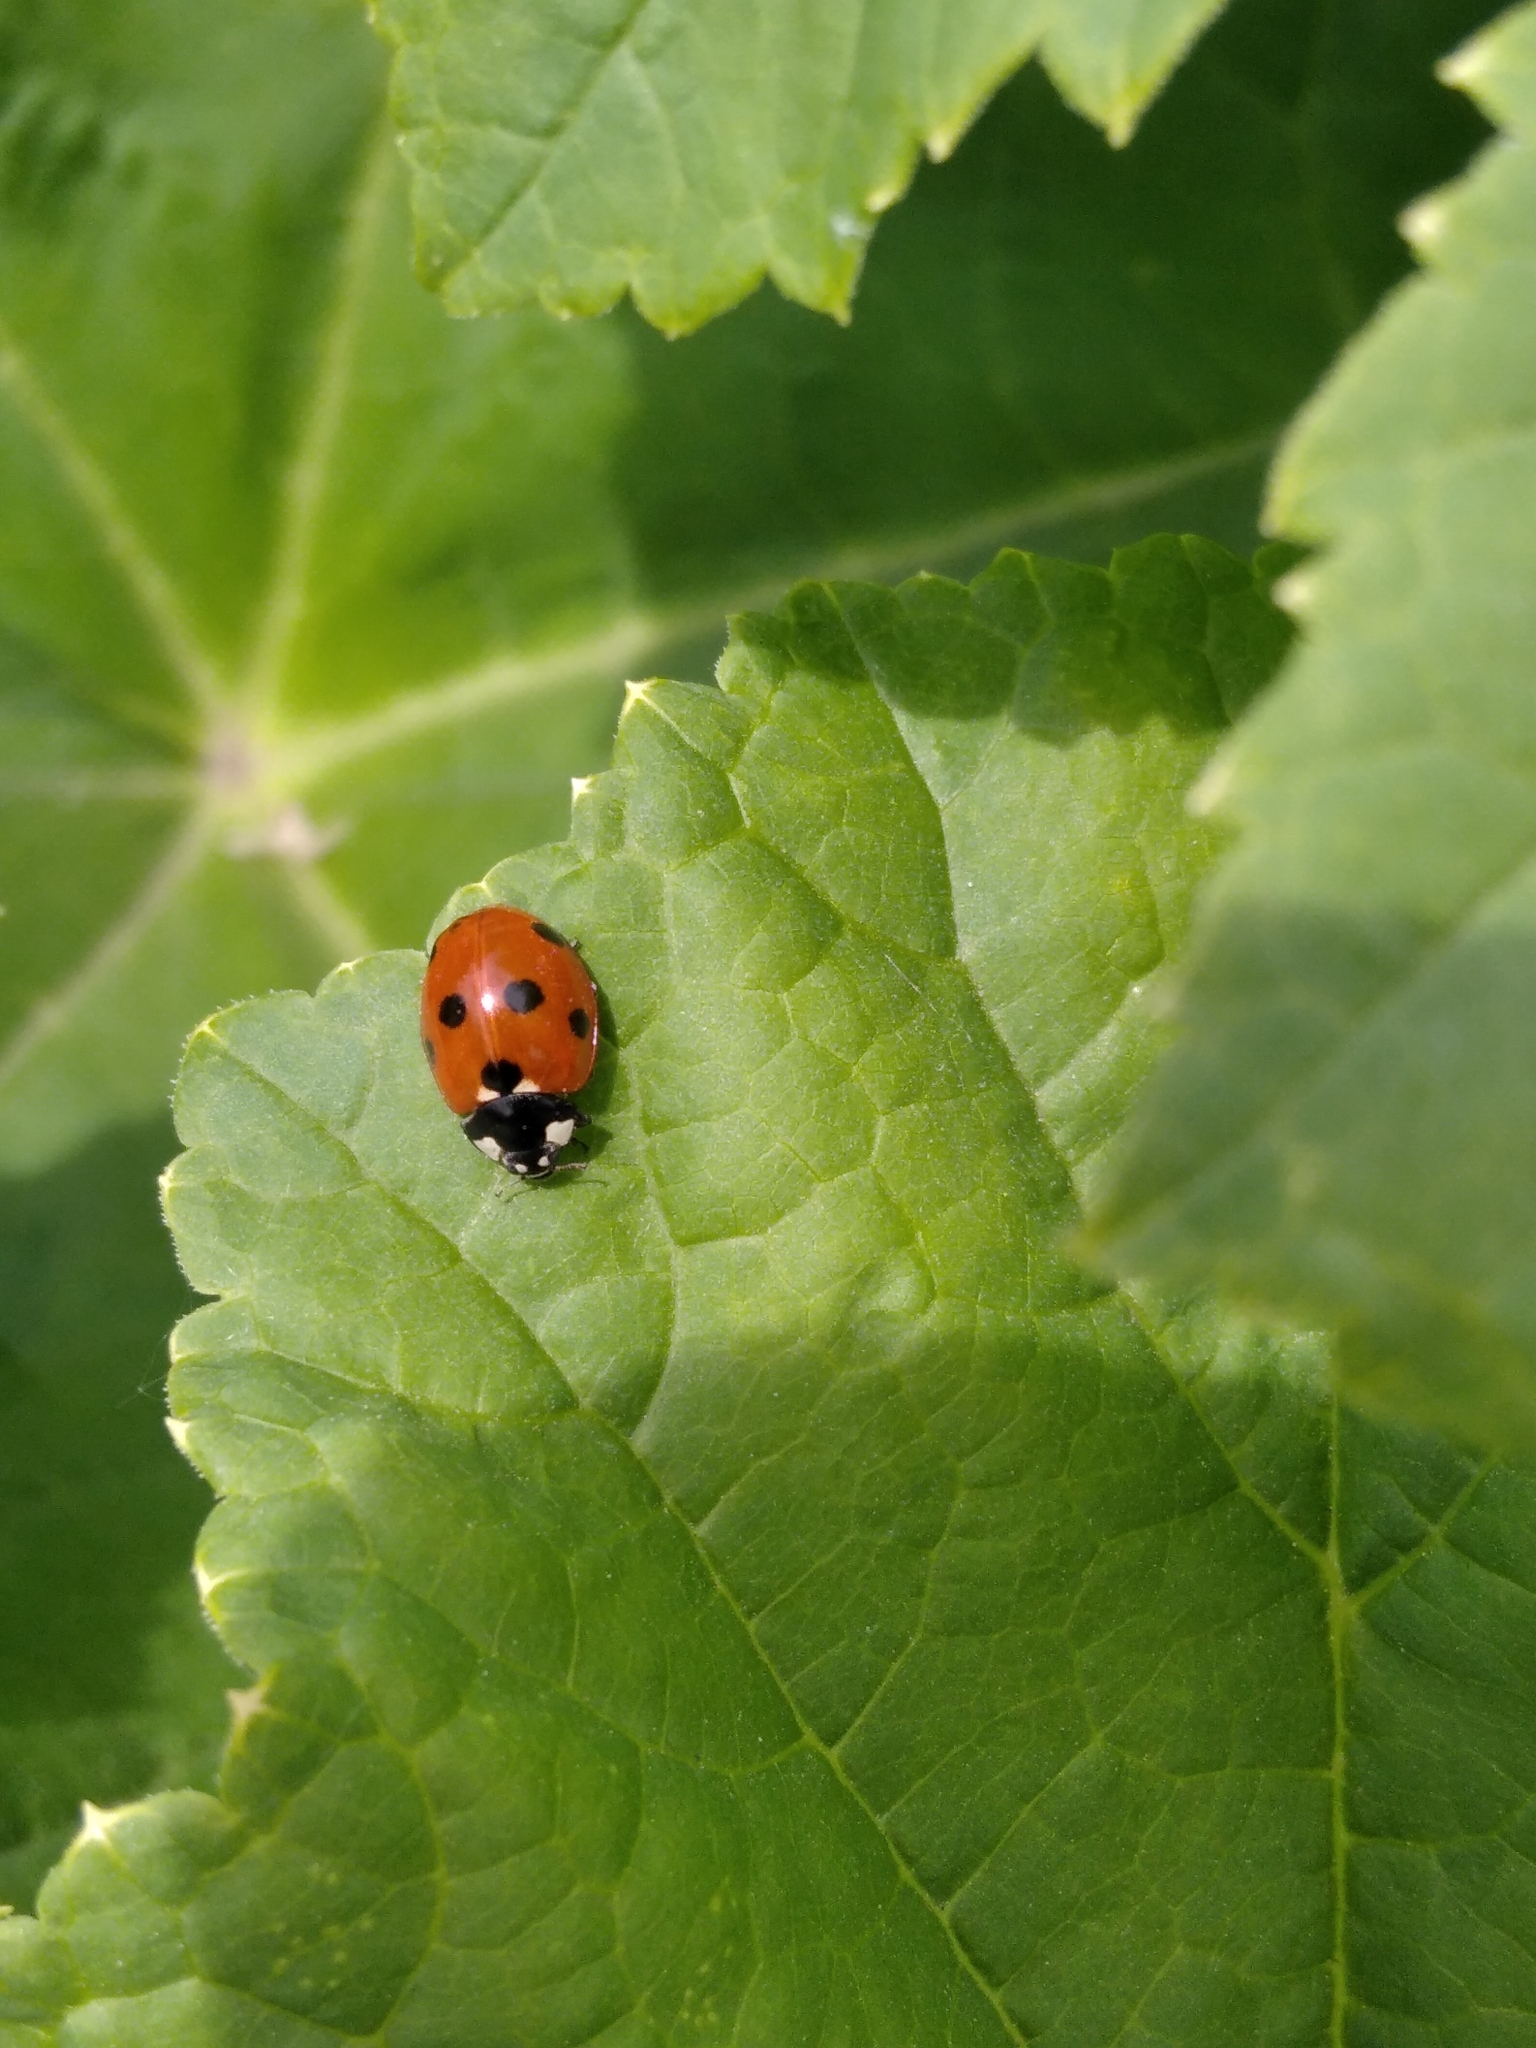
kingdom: Animalia
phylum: Arthropoda
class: Insecta
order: Coleoptera
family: Coccinellidae
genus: Coccinella
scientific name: Coccinella septempunctata
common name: Sevenspotted lady beetle
